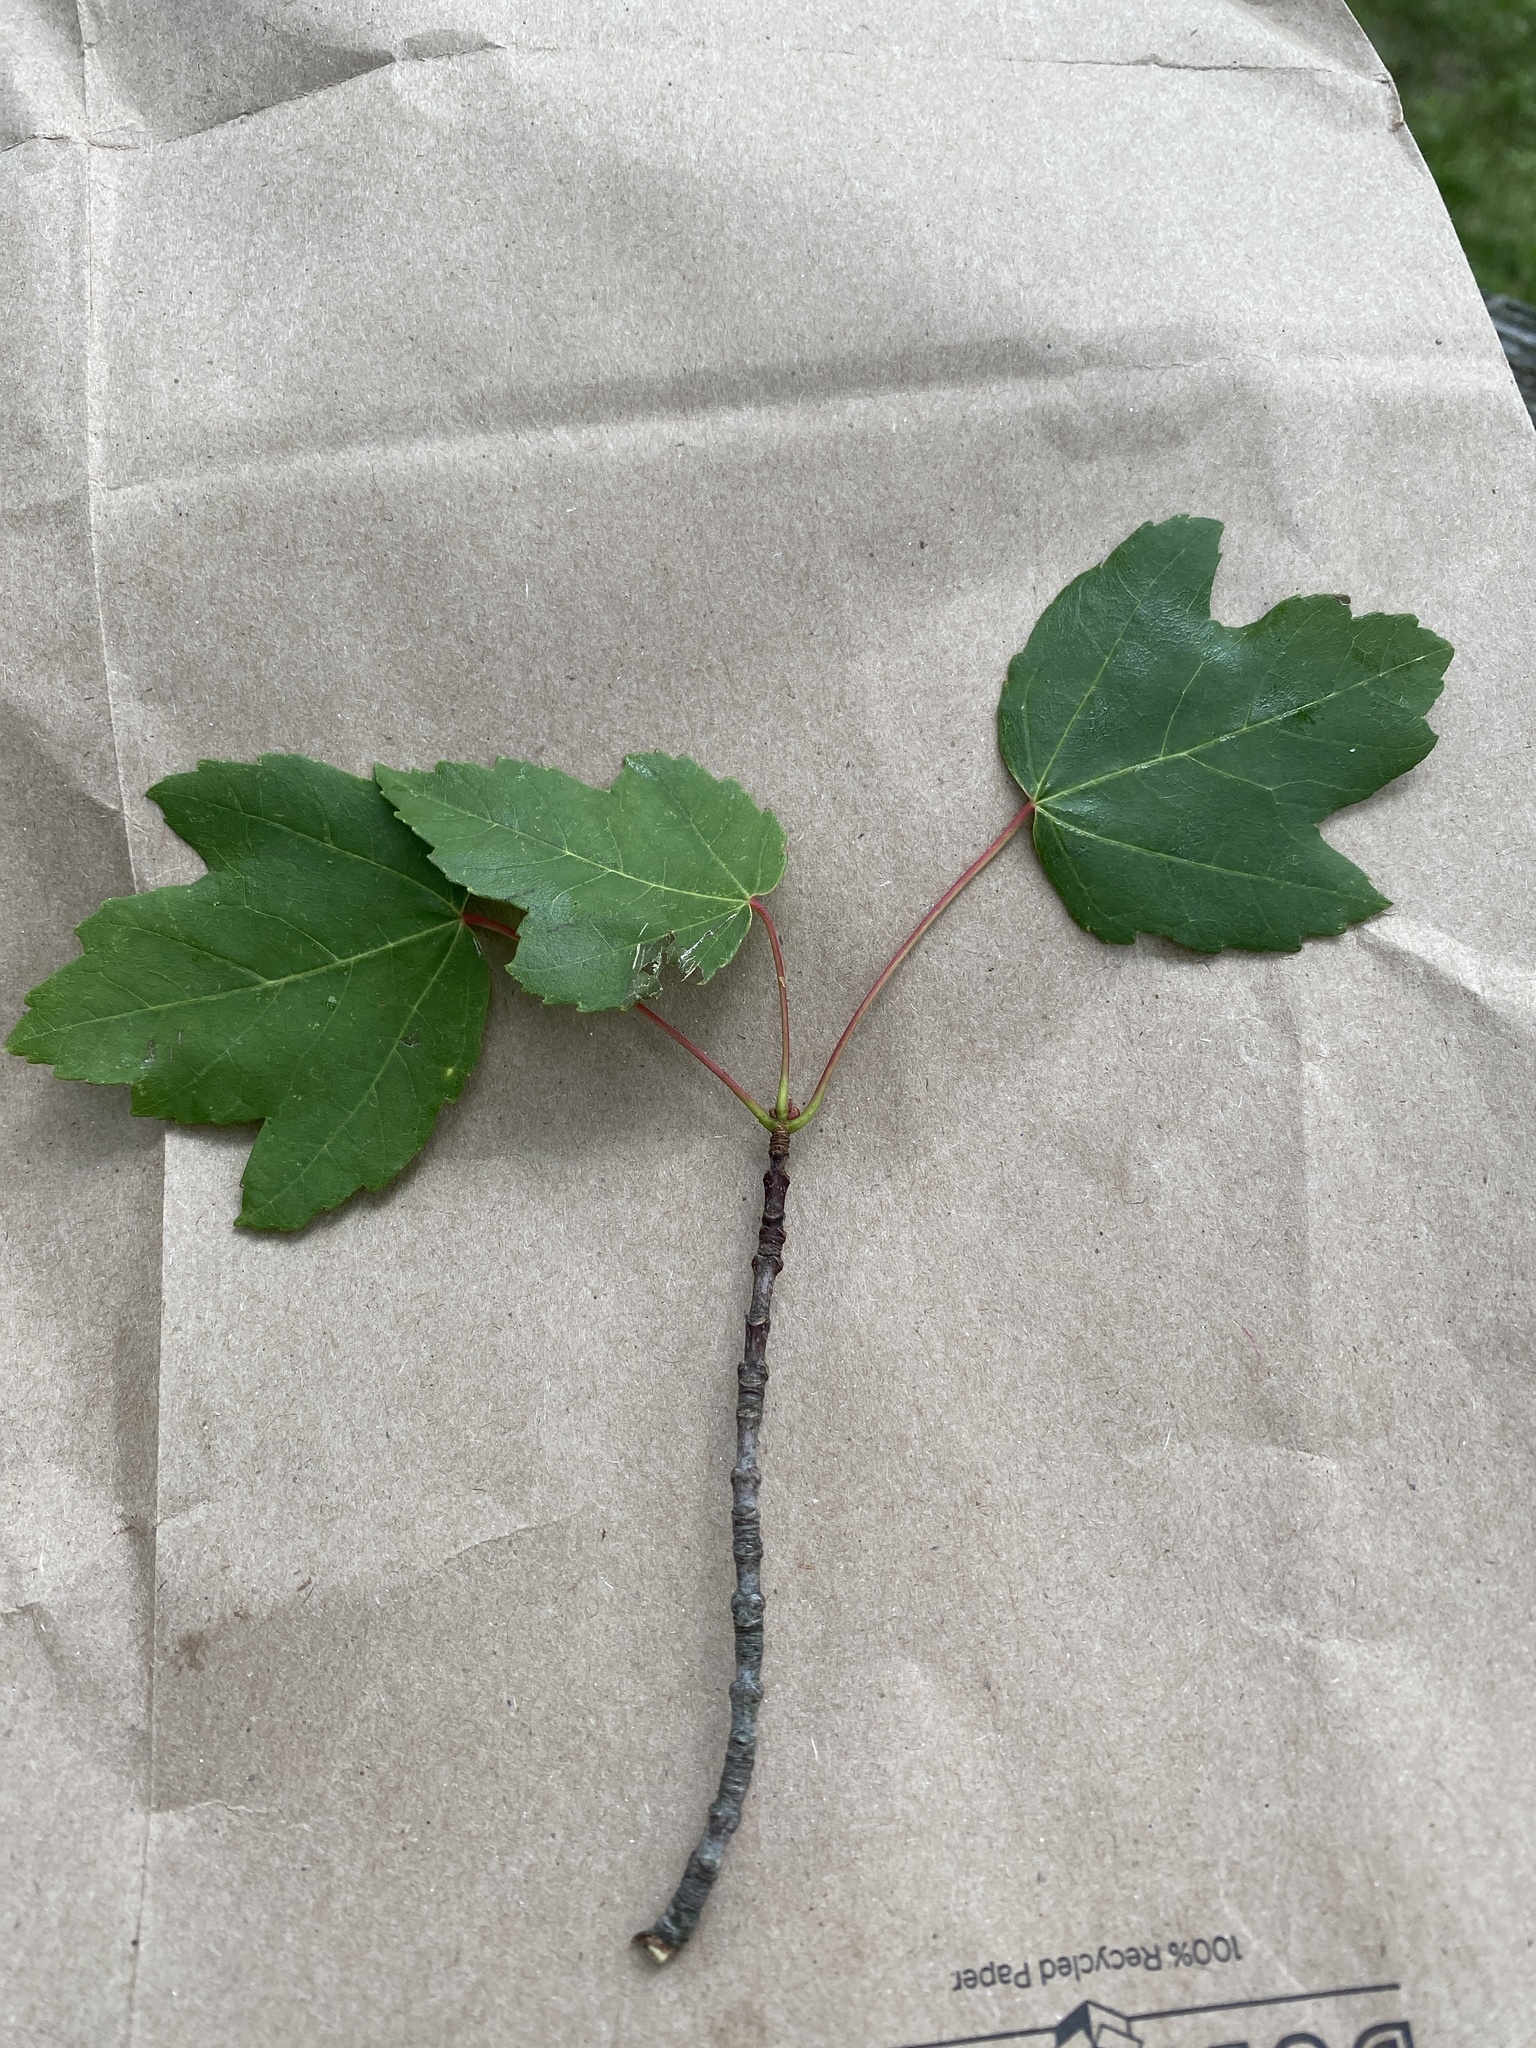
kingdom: Plantae
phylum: Tracheophyta
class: Magnoliopsida
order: Sapindales
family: Sapindaceae
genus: Acer
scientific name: Acer rubrum
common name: Red maple
